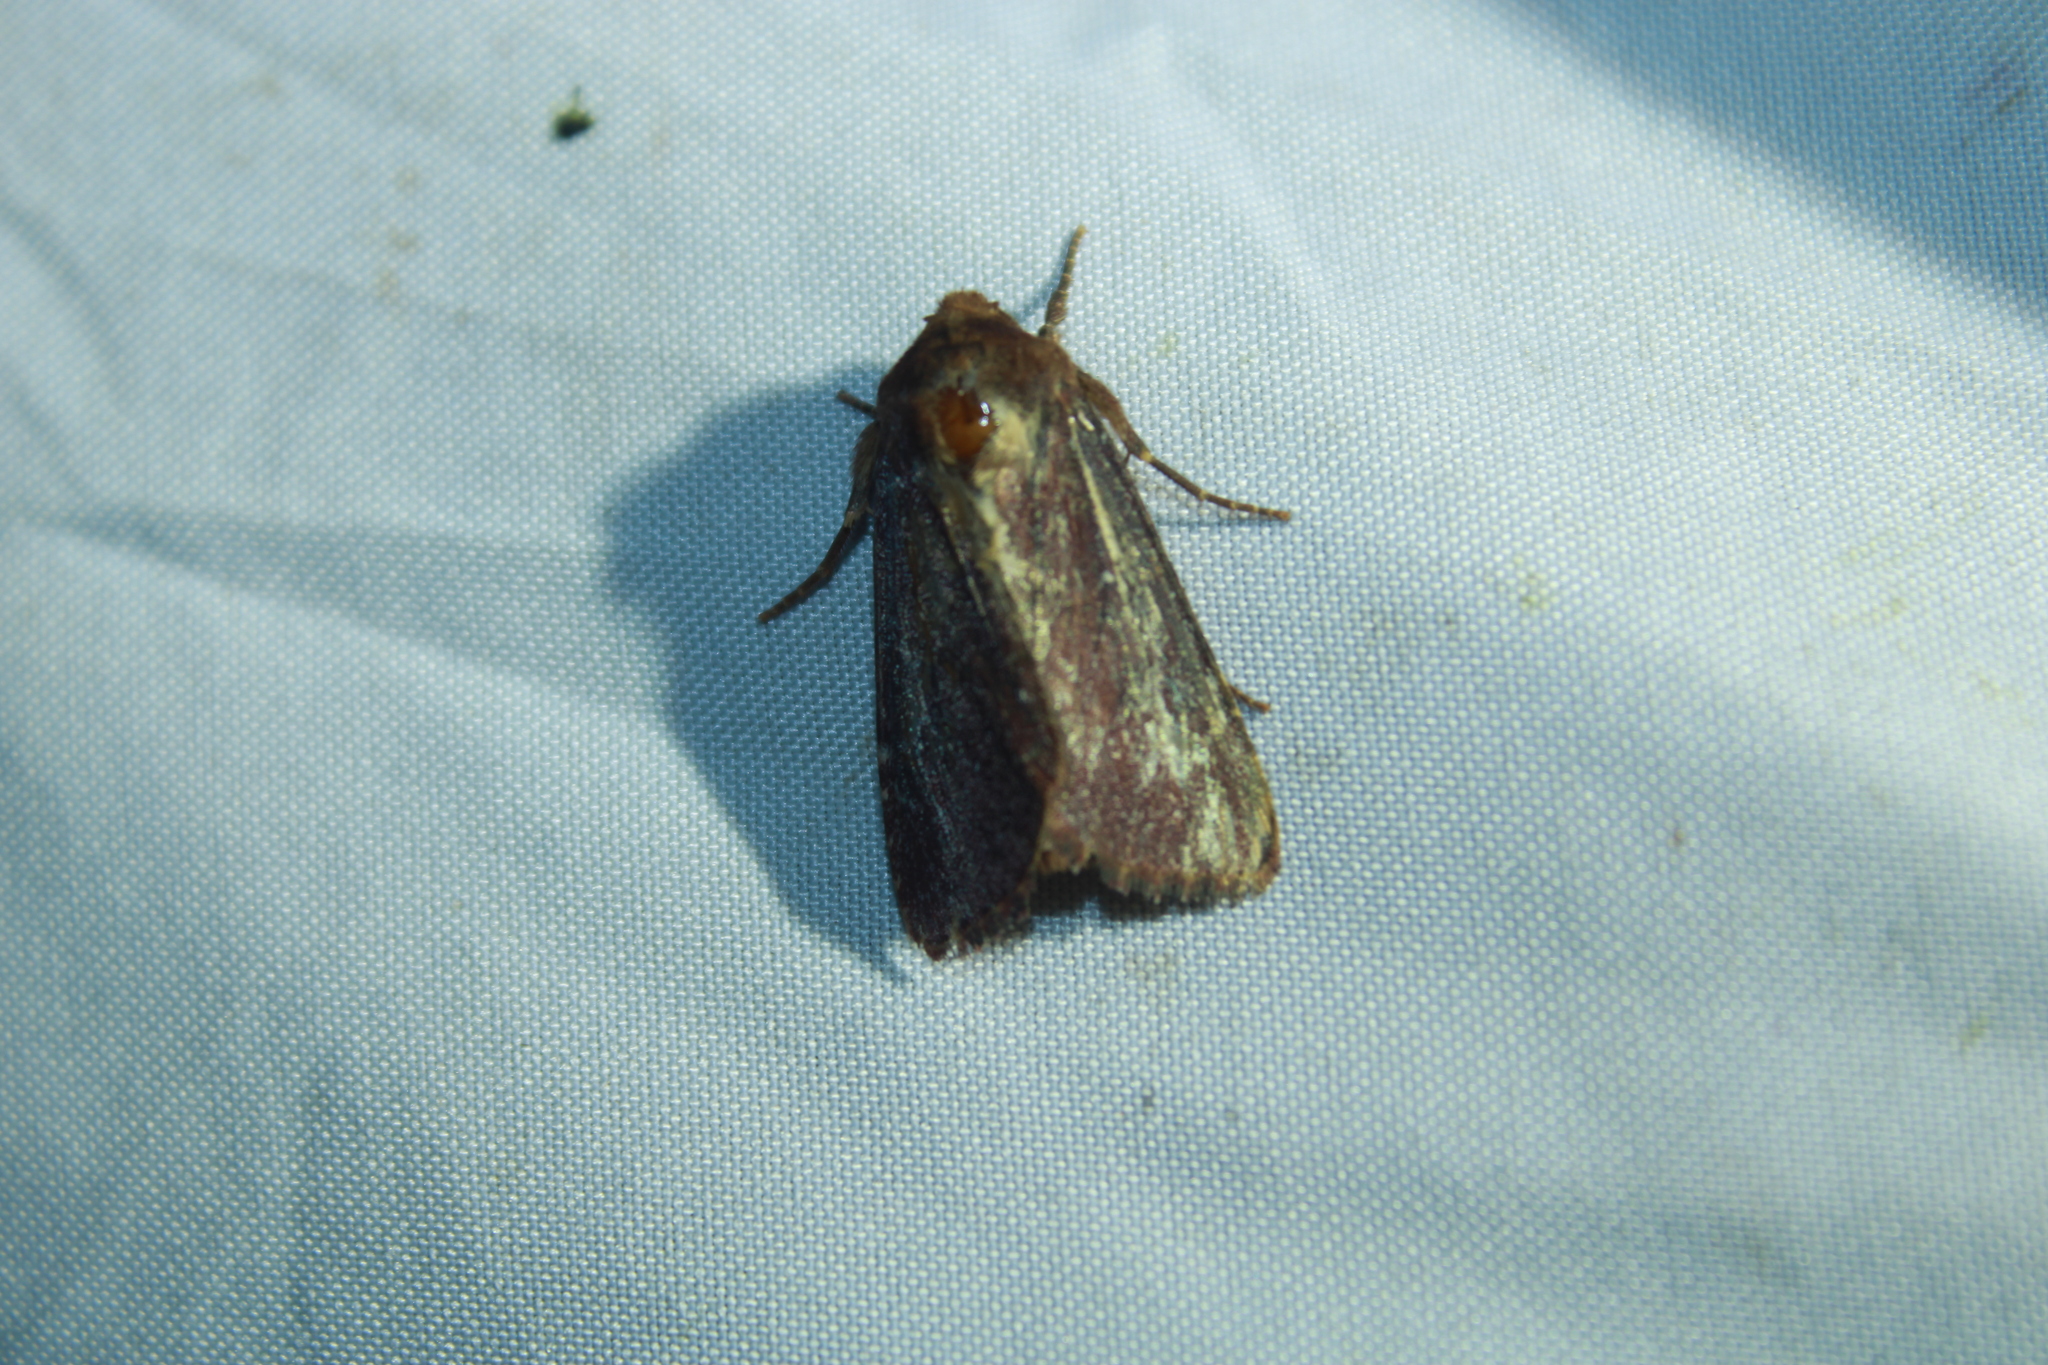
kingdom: Animalia
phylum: Arthropoda
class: Insecta
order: Lepidoptera
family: Noctuidae
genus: Sideridis
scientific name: Sideridis maryx
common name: Maroonwing moth
